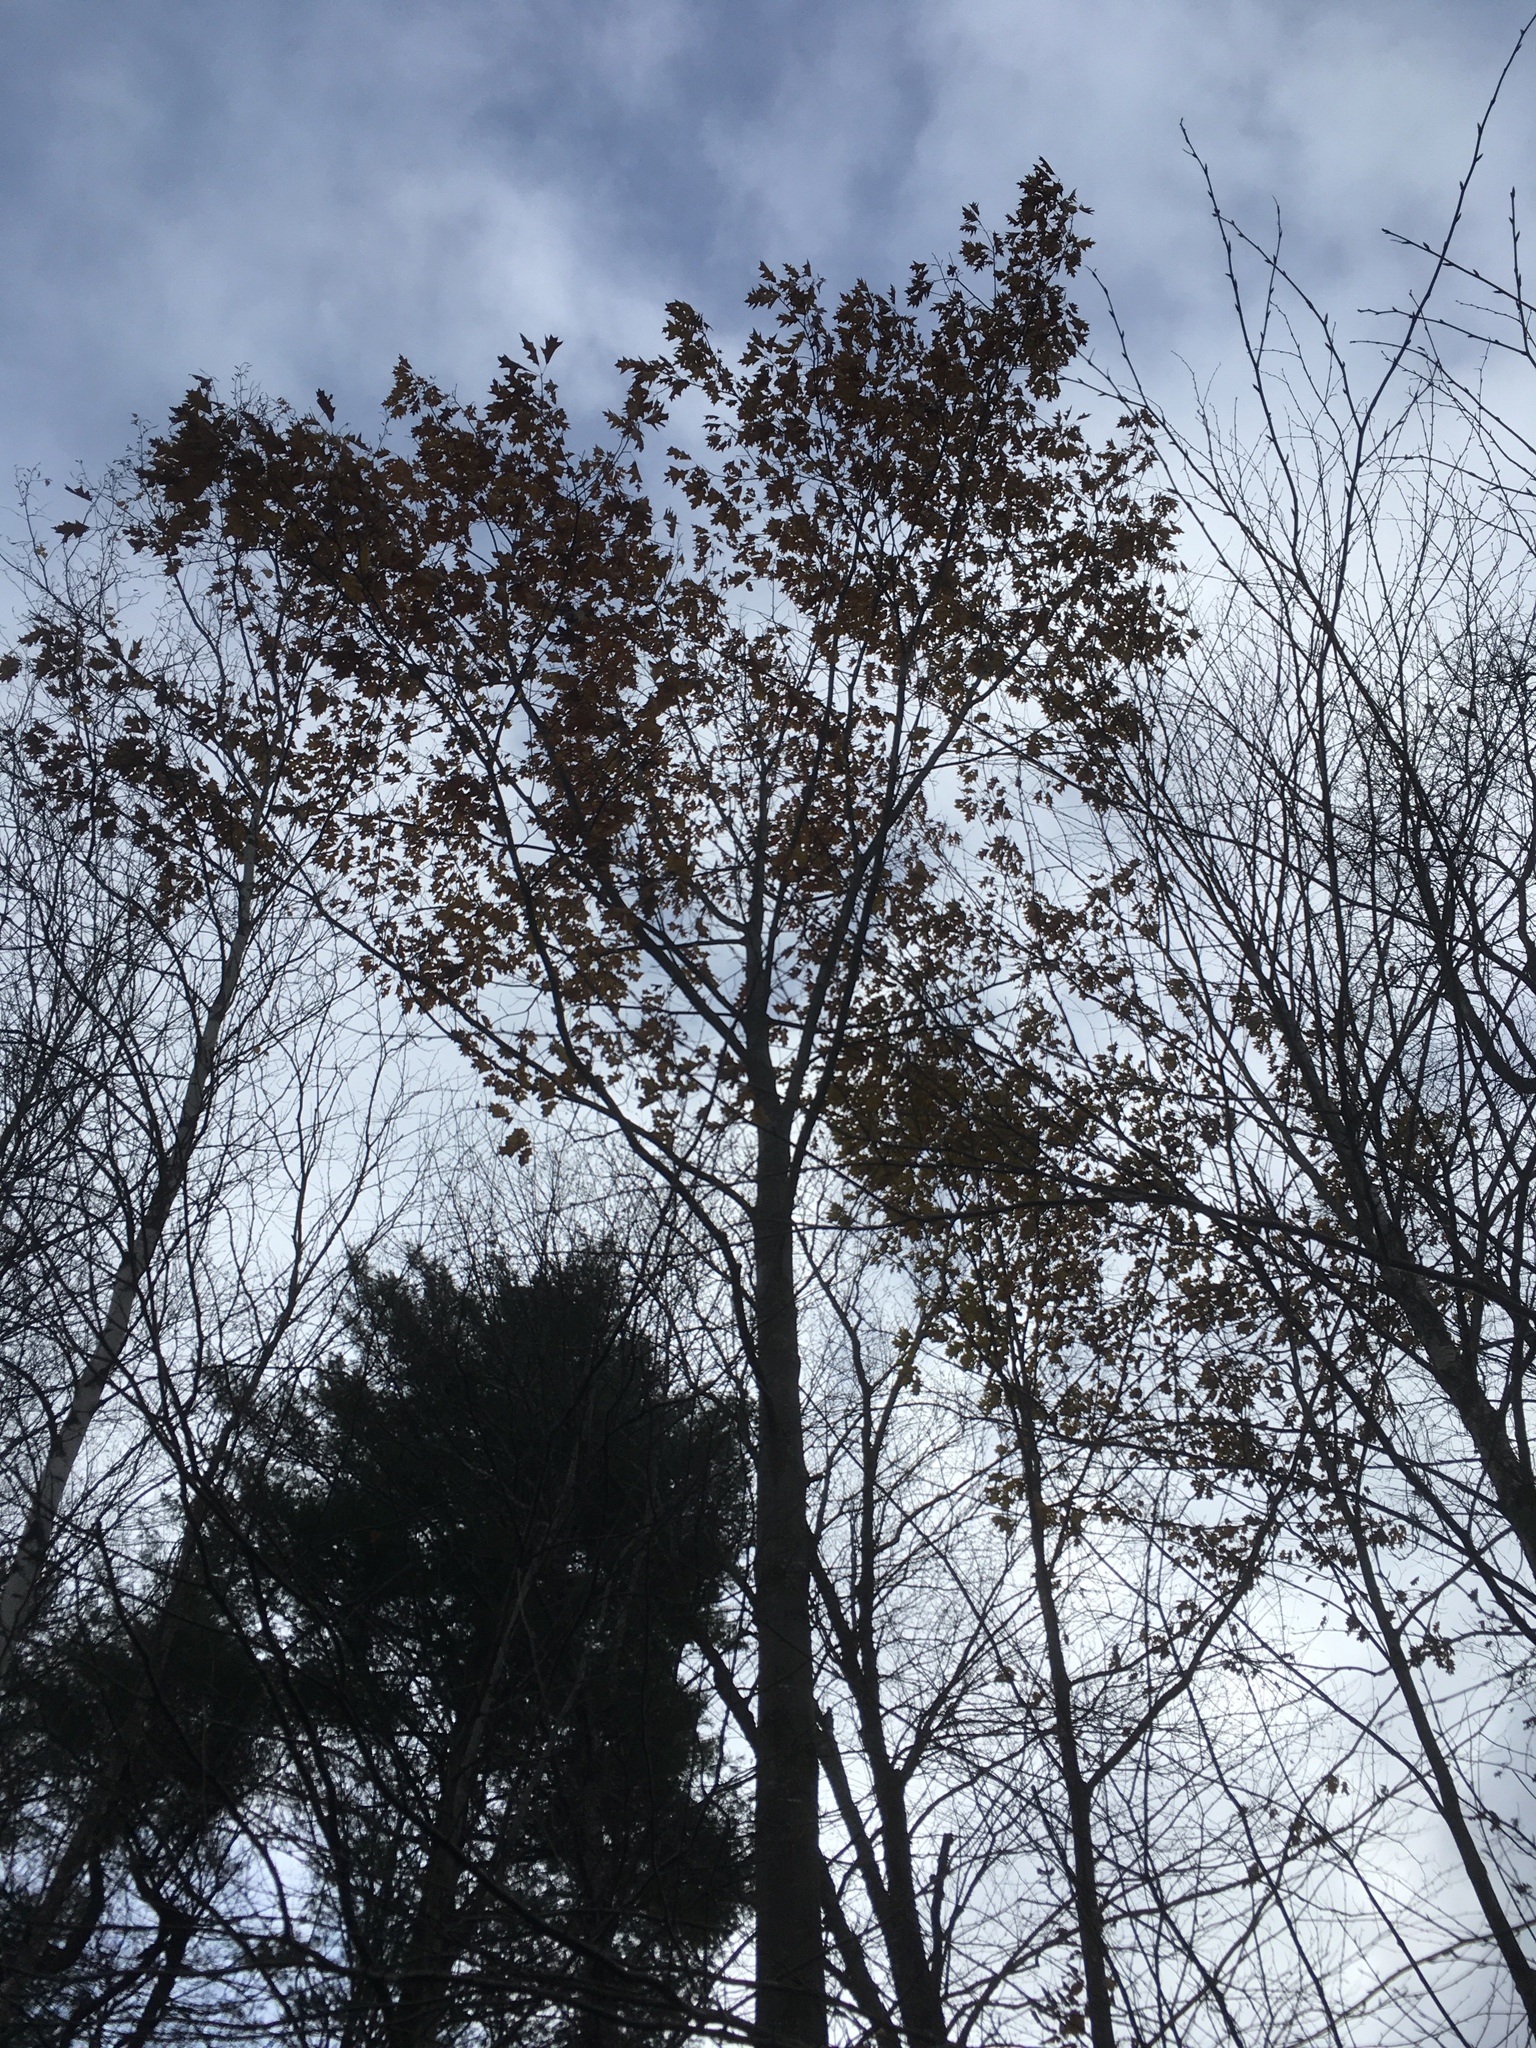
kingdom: Plantae
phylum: Tracheophyta
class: Magnoliopsida
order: Fagales
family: Fagaceae
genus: Quercus
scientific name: Quercus rubra
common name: Red oak
